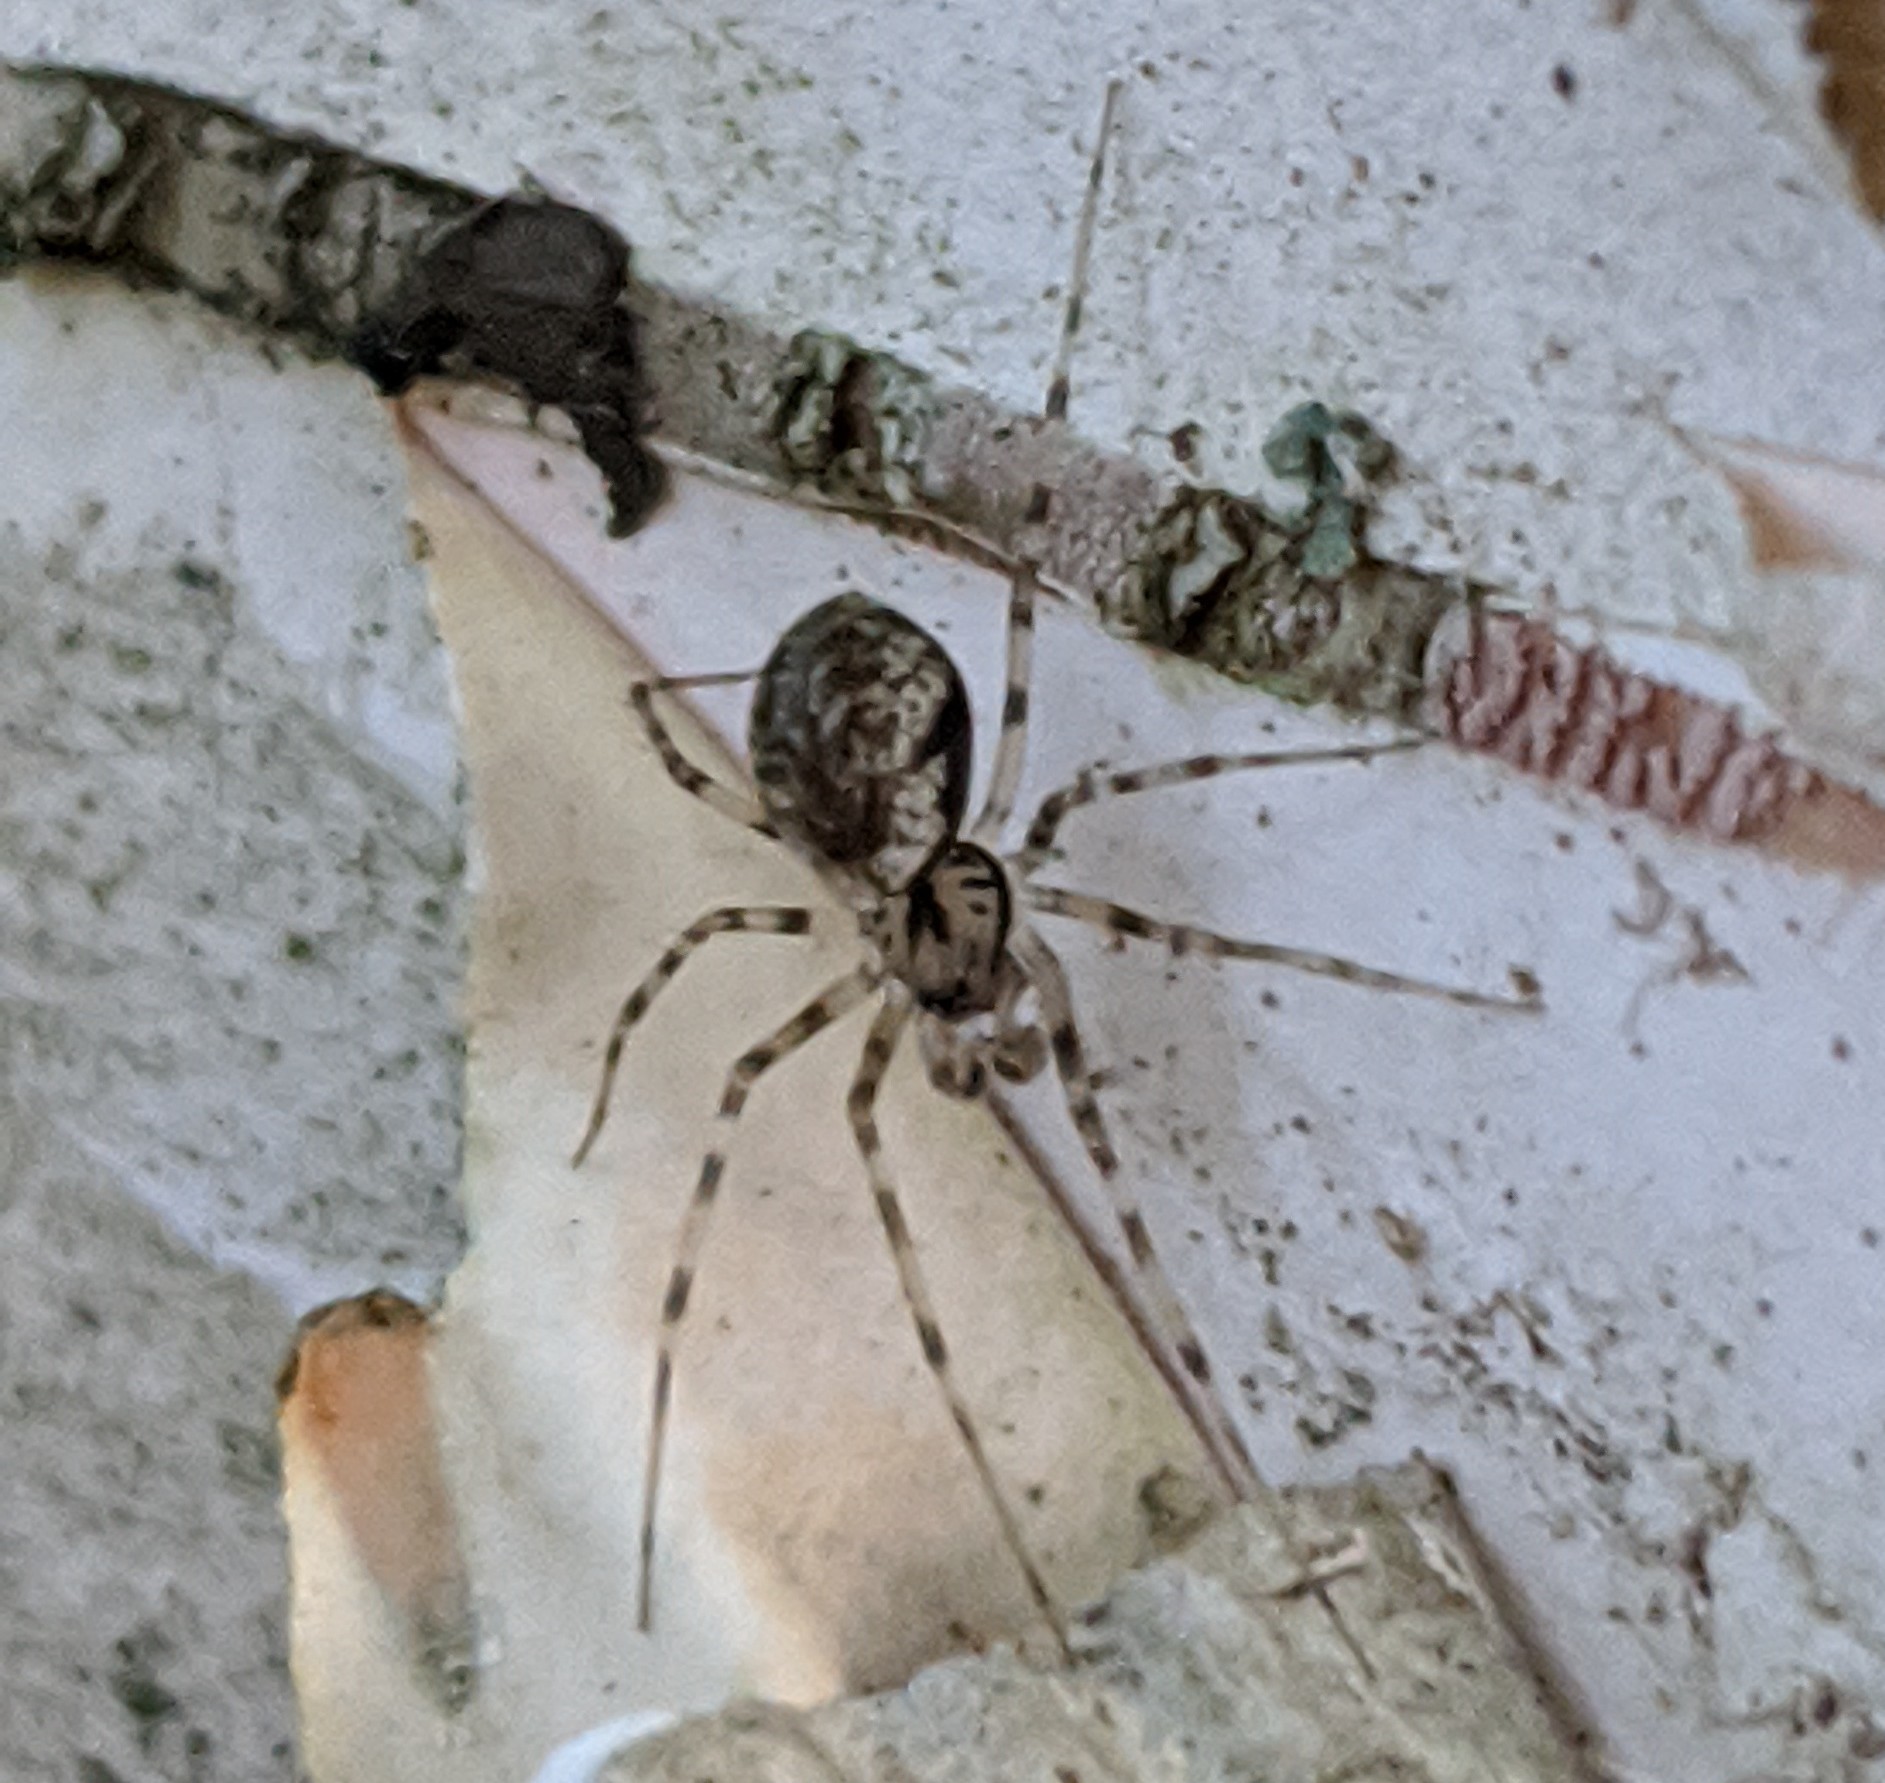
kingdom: Animalia
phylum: Arthropoda
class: Arachnida
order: Araneae
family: Linyphiidae
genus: Drapetisca
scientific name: Drapetisca socialis
